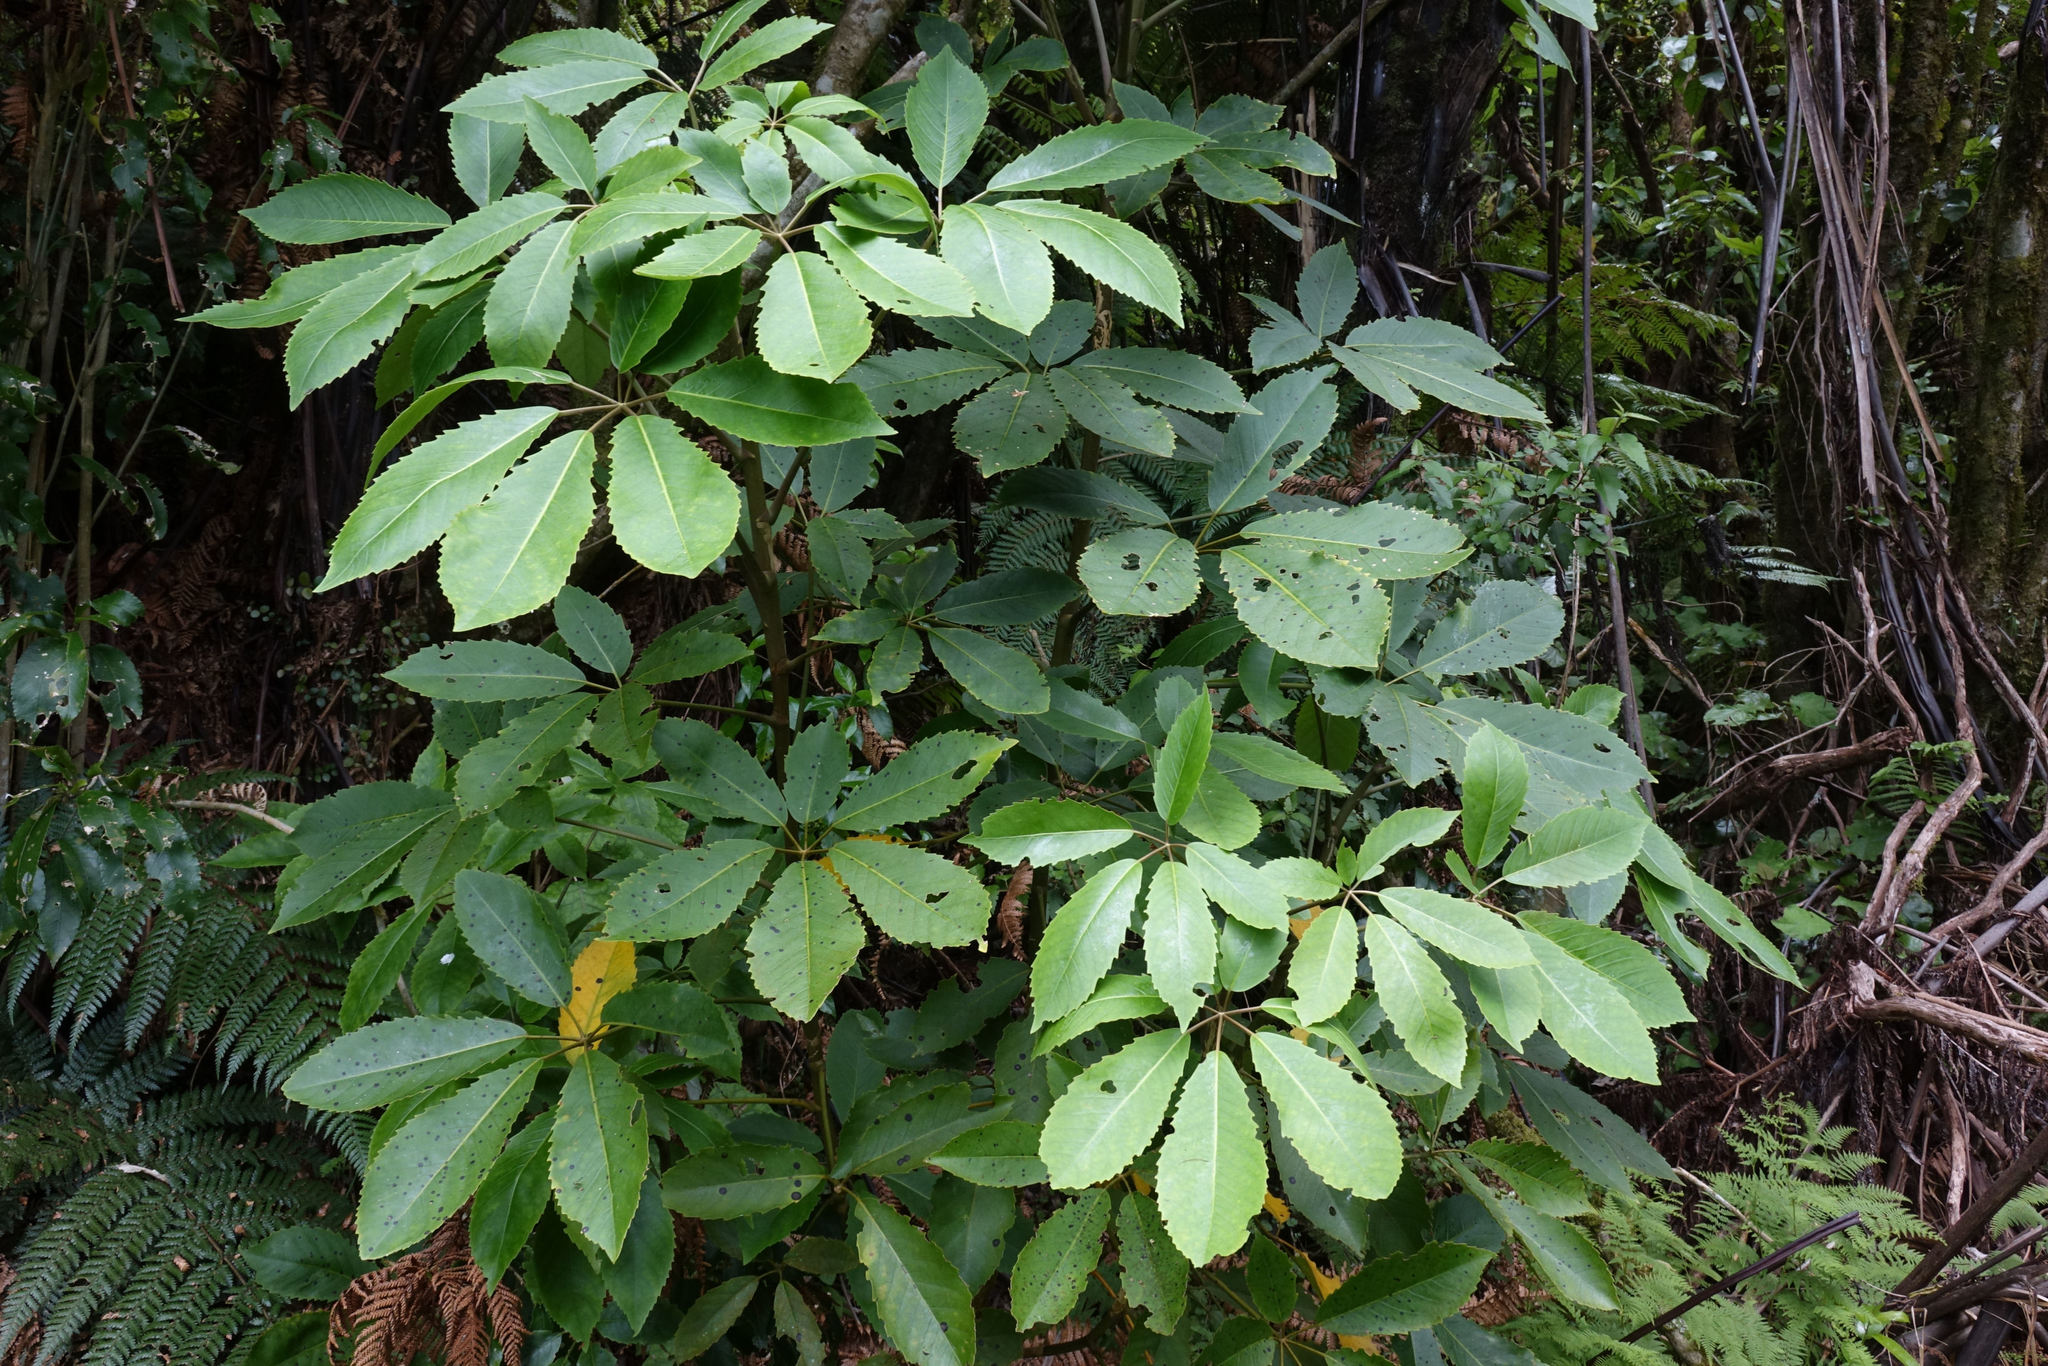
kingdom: Plantae
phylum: Tracheophyta
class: Magnoliopsida
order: Apiales
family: Araliaceae
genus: Neopanax
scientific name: Neopanax arboreus
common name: Five-fingers
